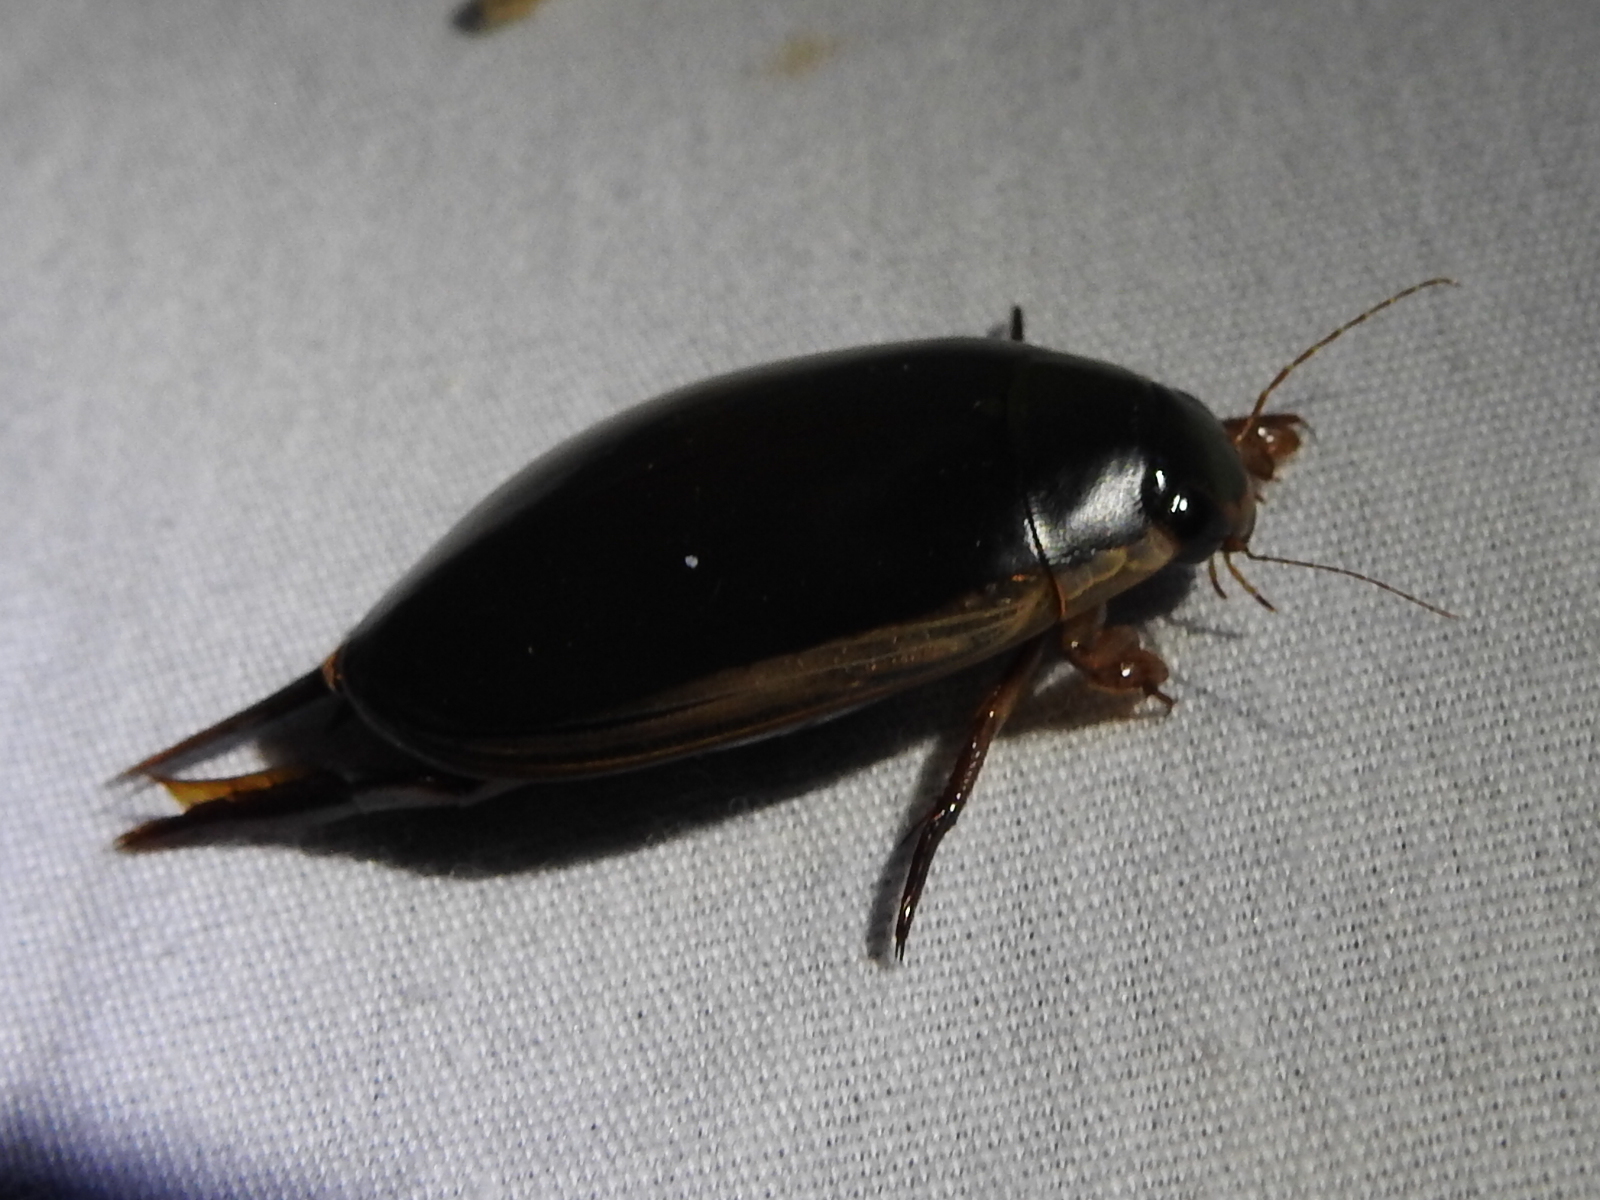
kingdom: Animalia
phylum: Arthropoda
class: Insecta
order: Coleoptera
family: Dytiscidae
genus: Cybister
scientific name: Cybister fimbriolatus
